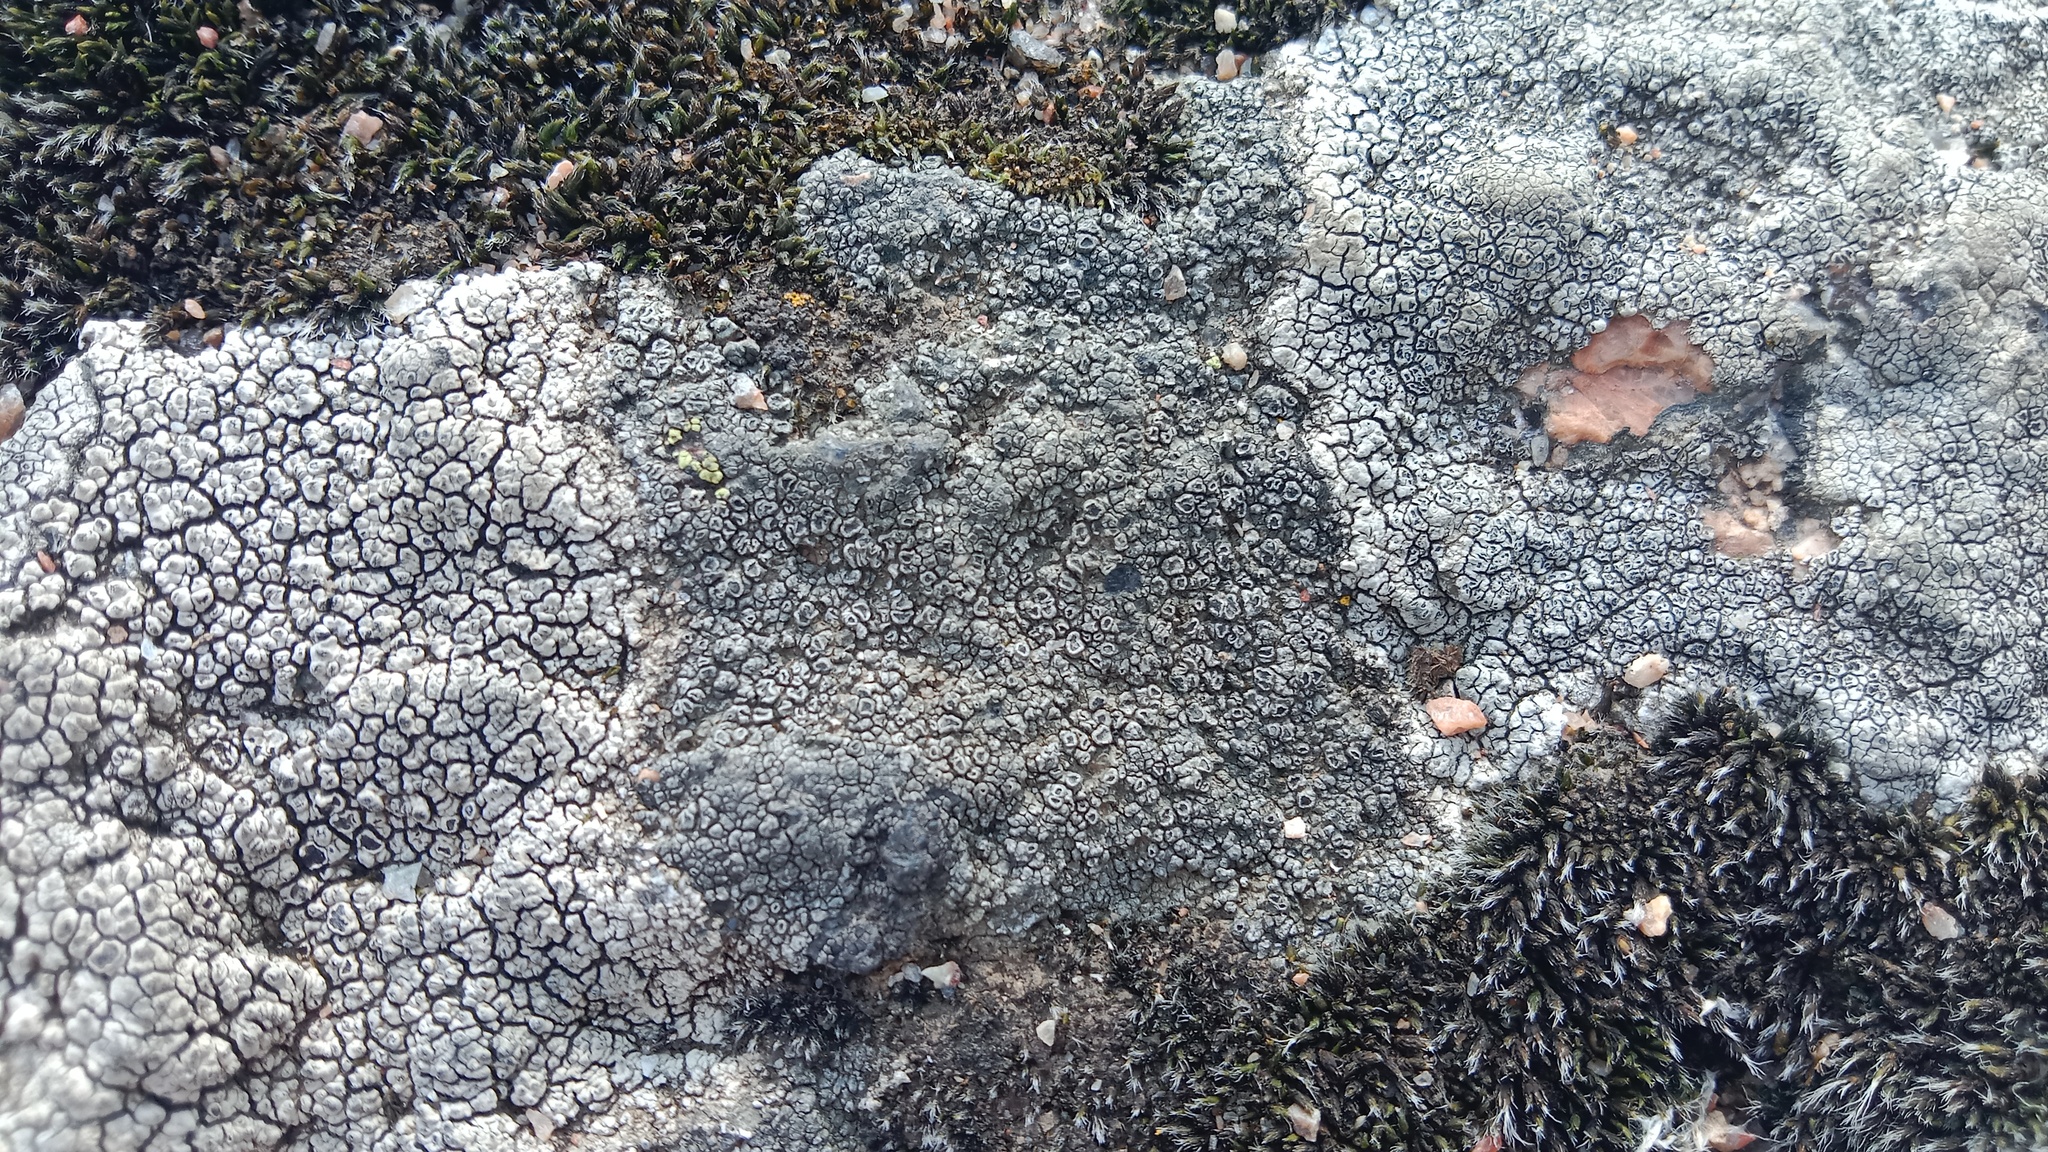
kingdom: Fungi
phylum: Ascomycota
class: Lecanoromycetes
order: Pertusariales
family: Megasporaceae
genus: Circinaria
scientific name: Circinaria caesiocinerea
